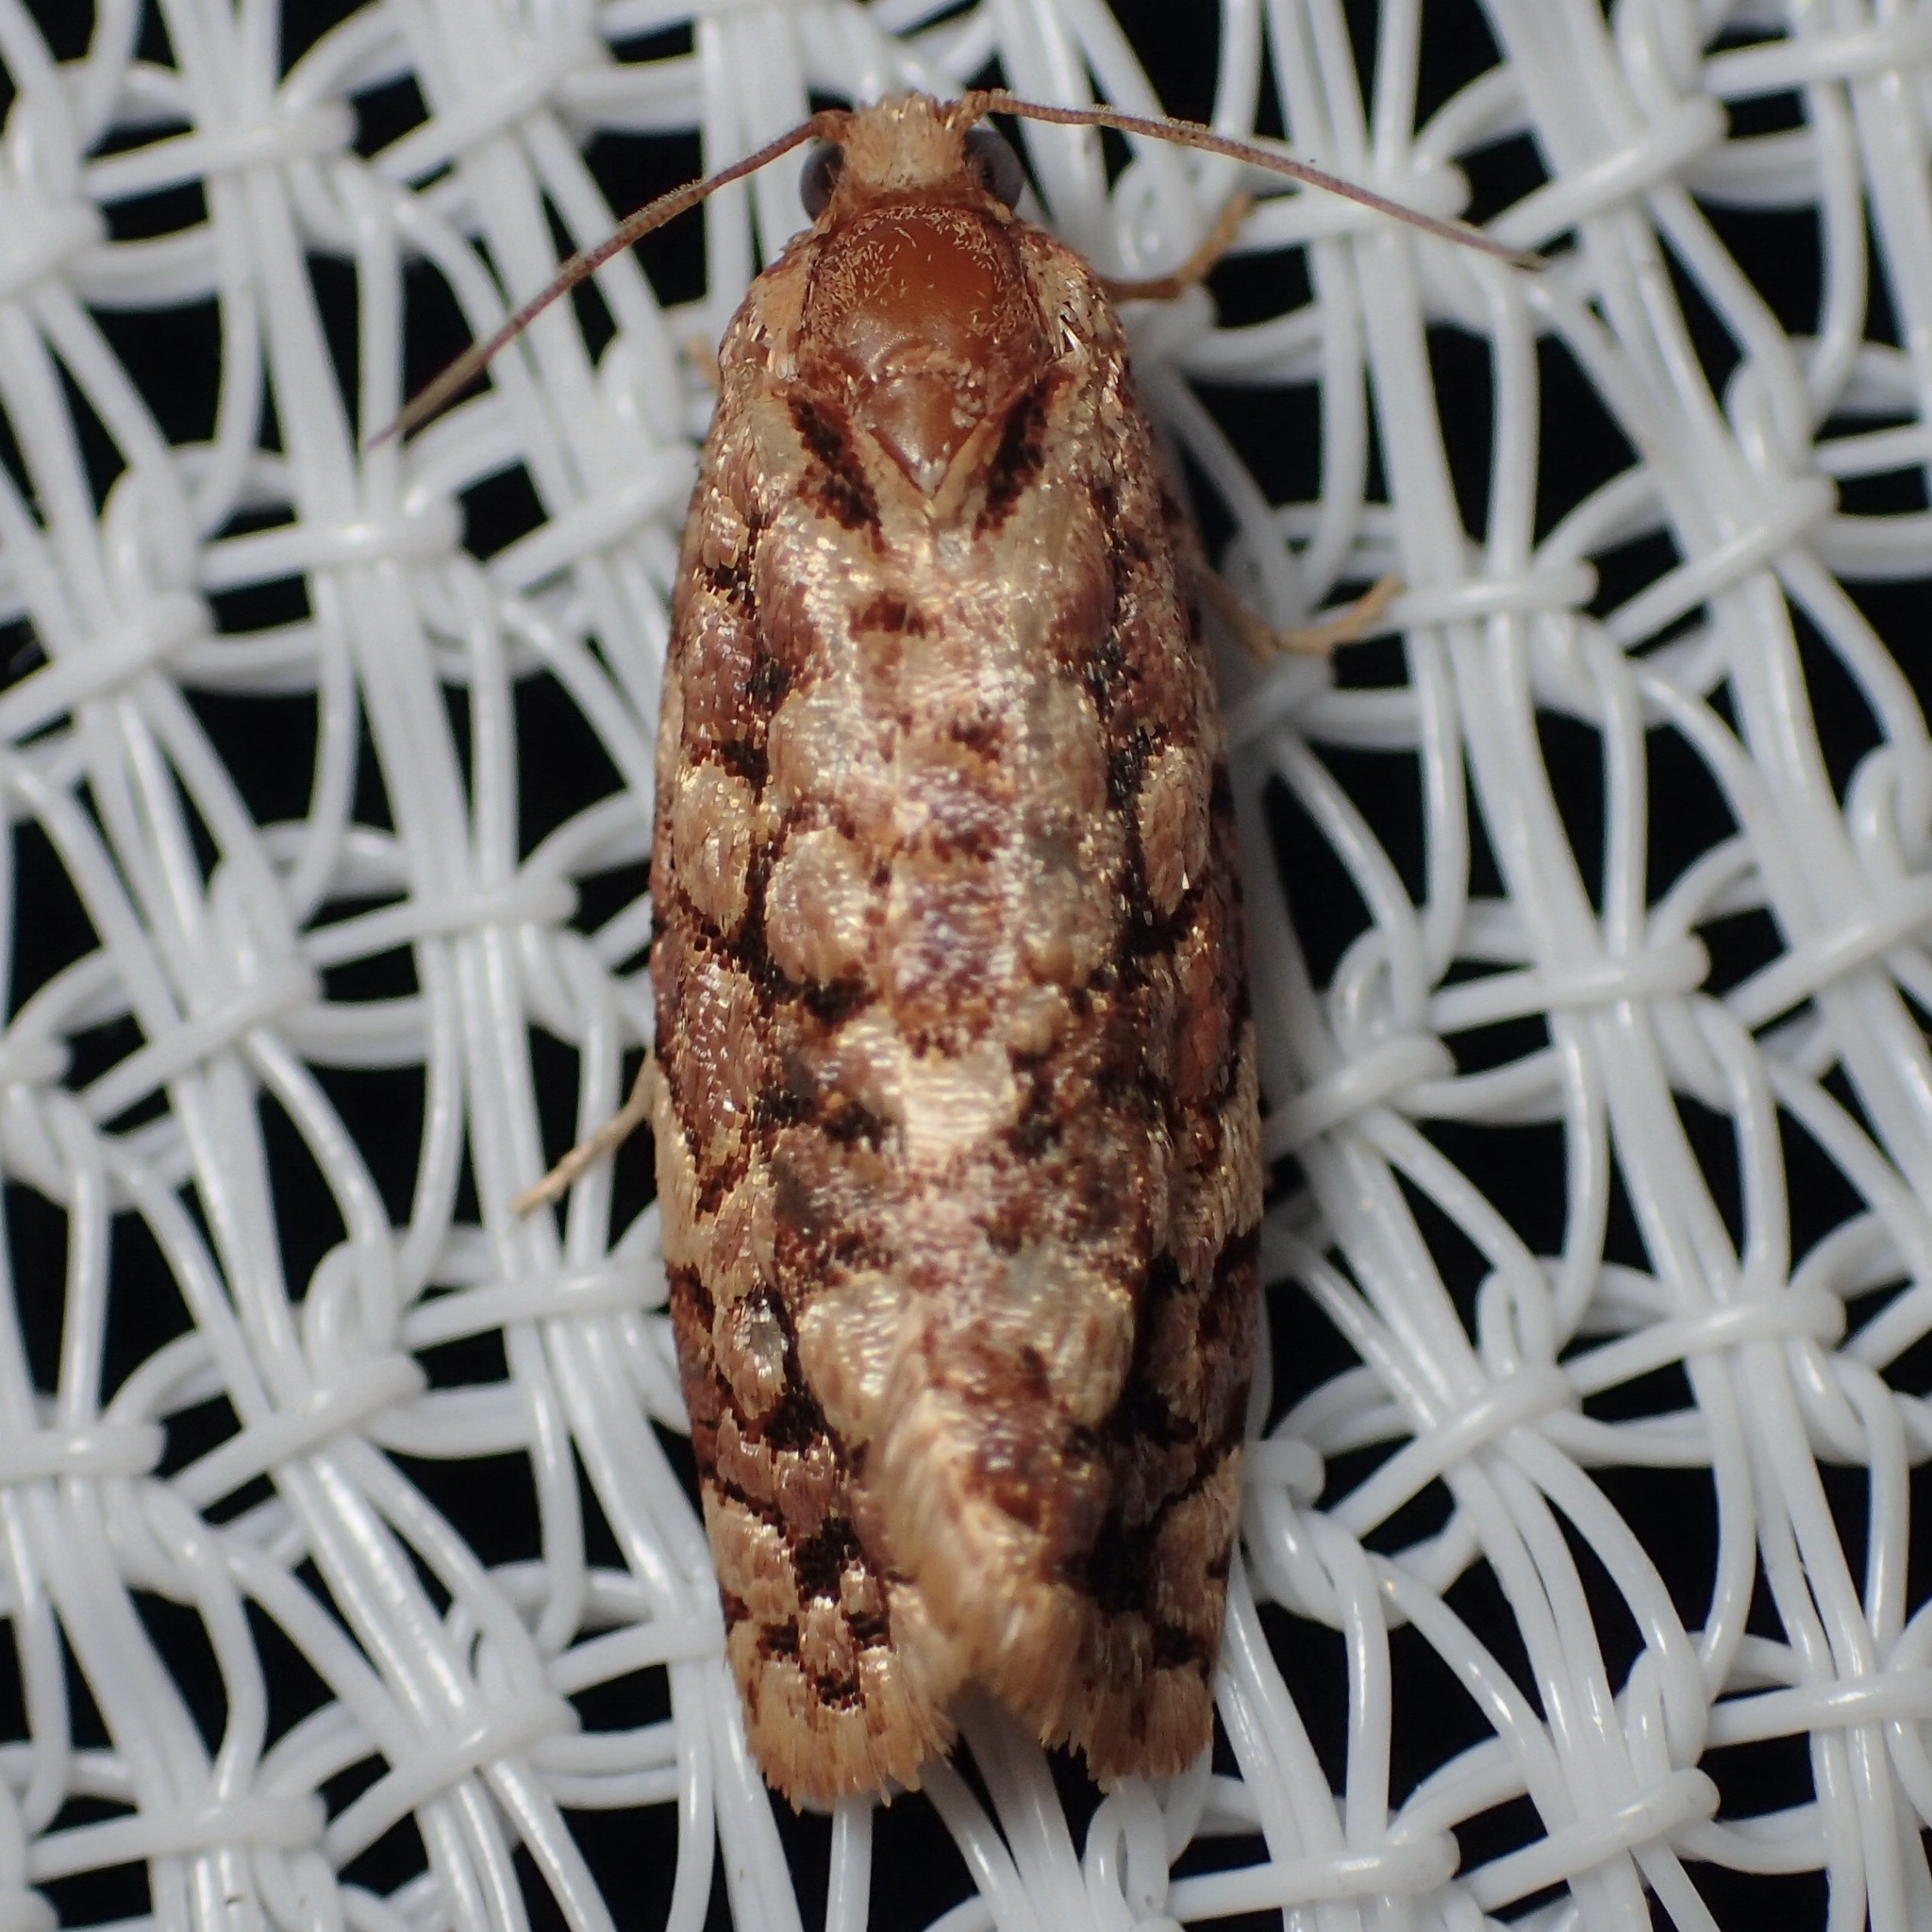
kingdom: Animalia
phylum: Arthropoda
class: Insecta
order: Lepidoptera
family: Tortricidae
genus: Choristoneura
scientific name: Choristoneura houstonana
